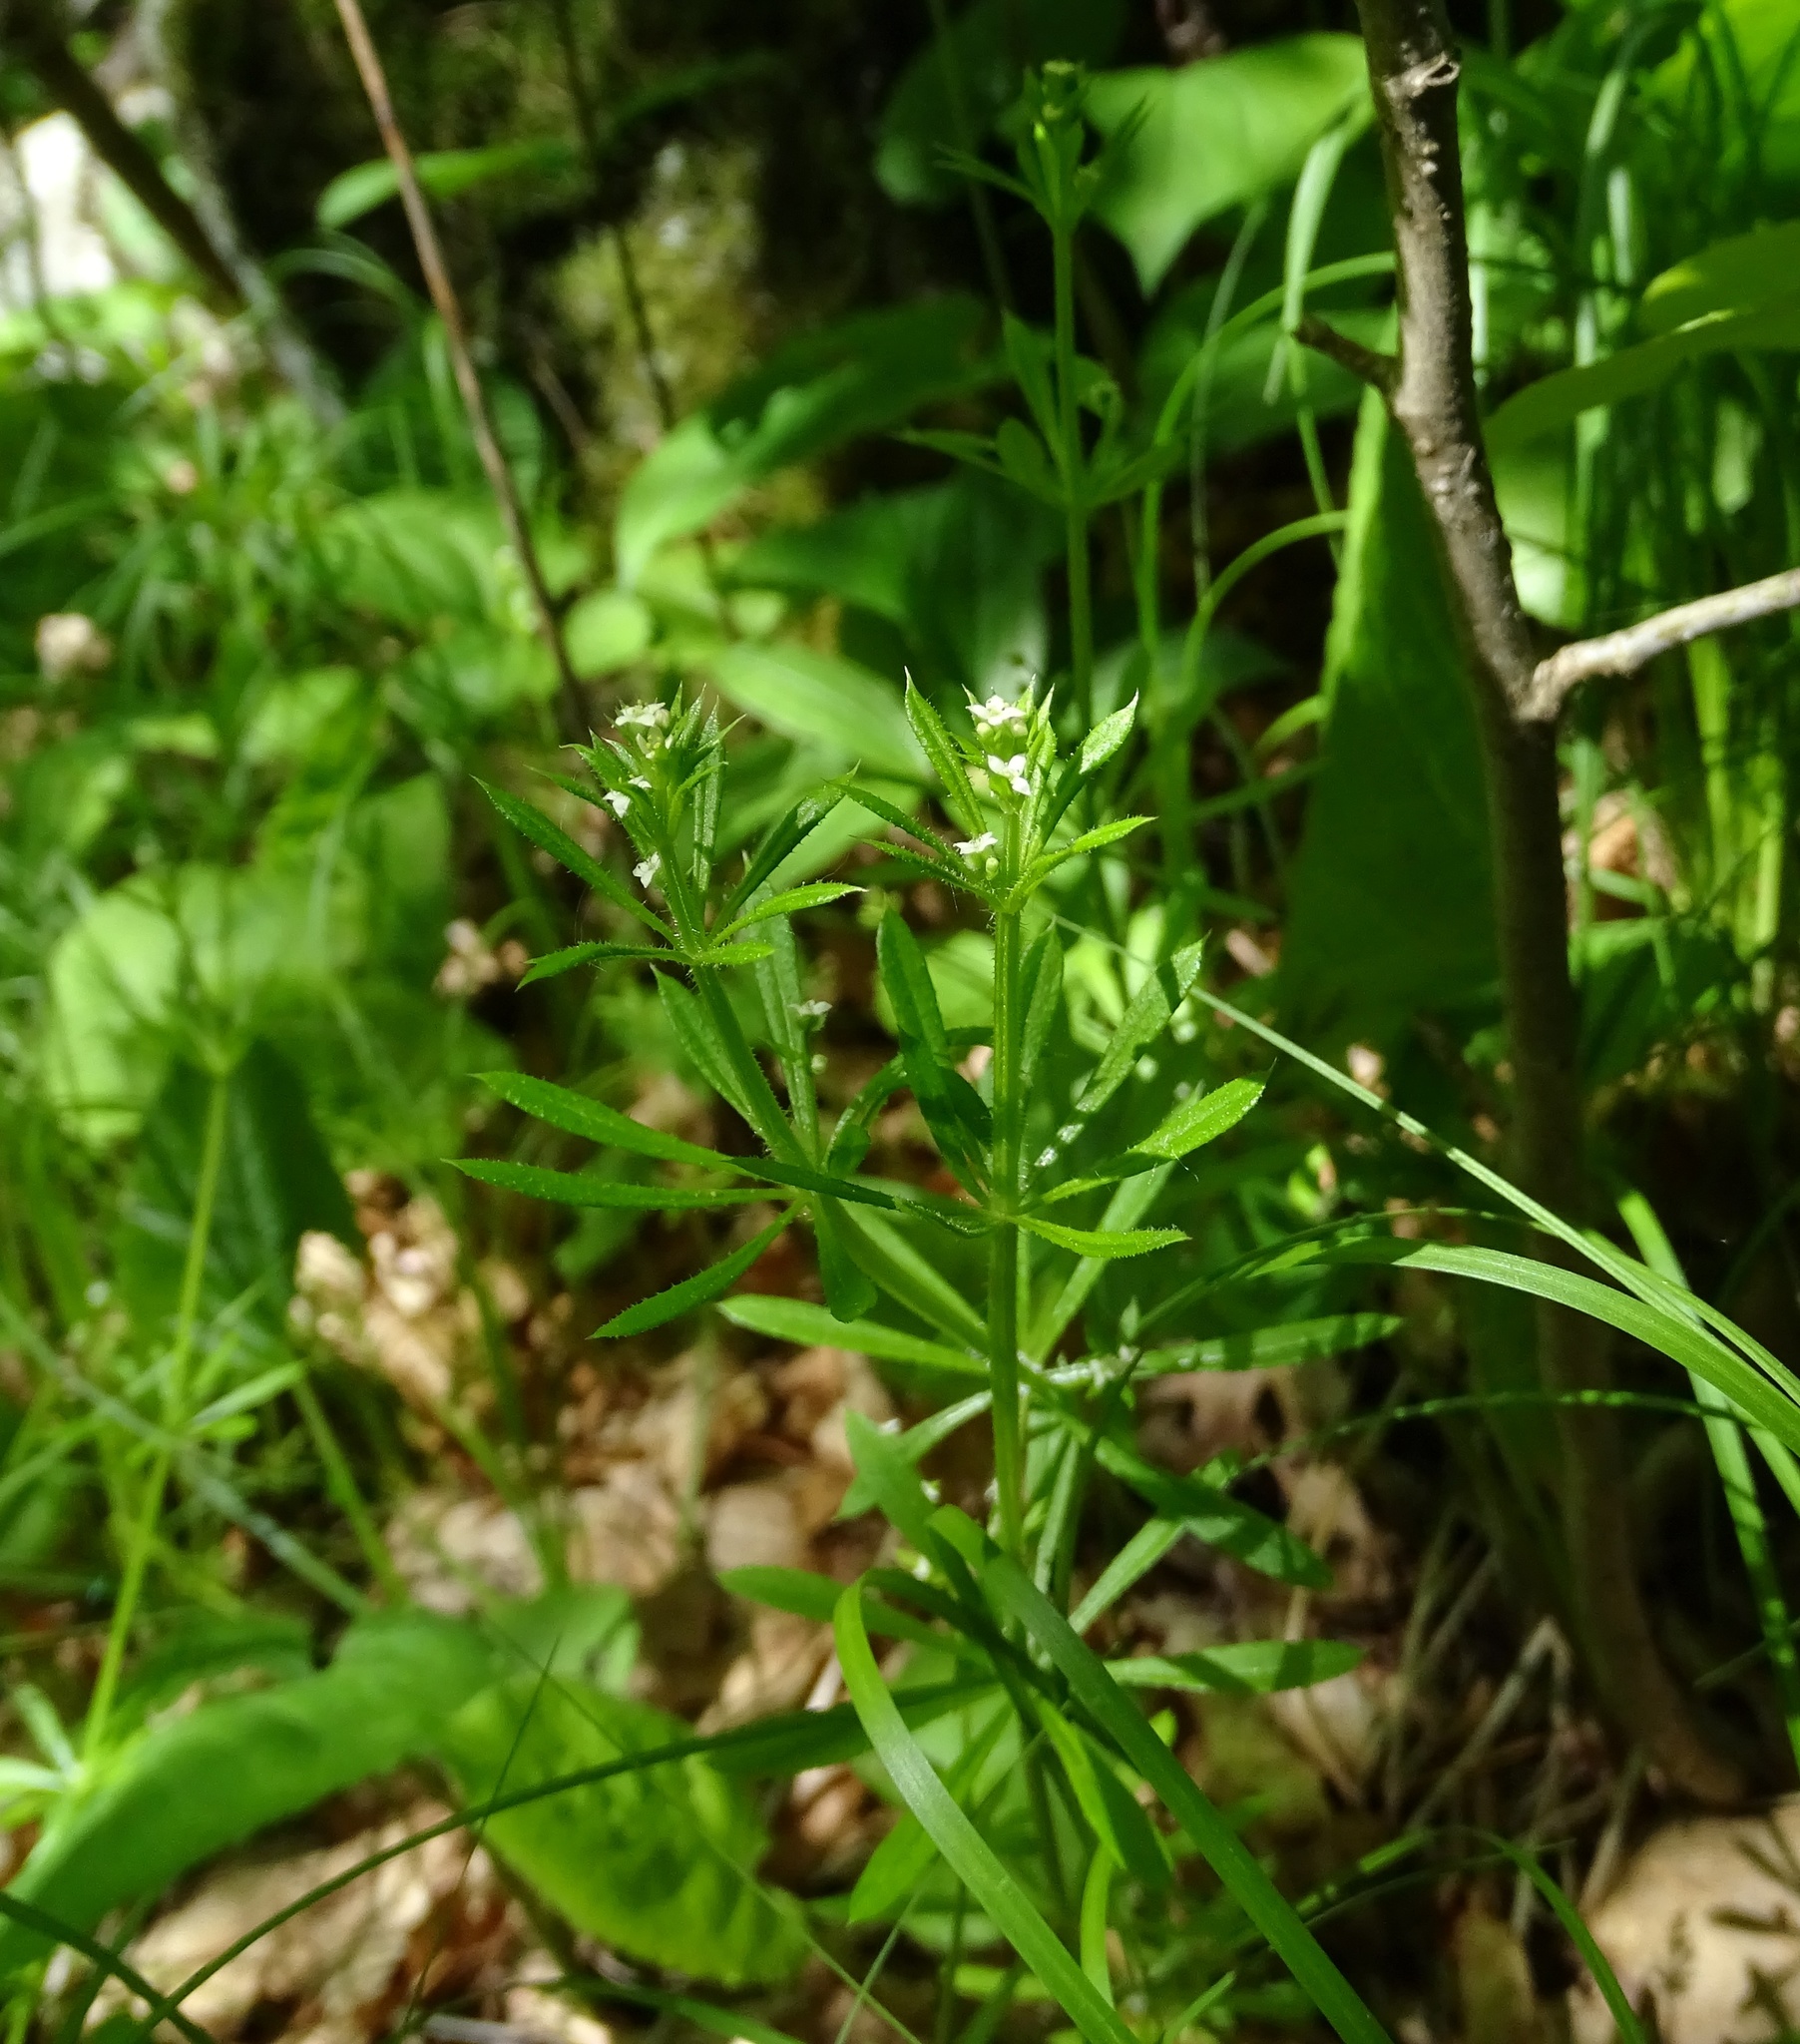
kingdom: Plantae
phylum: Tracheophyta
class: Magnoliopsida
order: Gentianales
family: Rubiaceae
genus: Galium
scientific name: Galium aparine
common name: Cleavers
